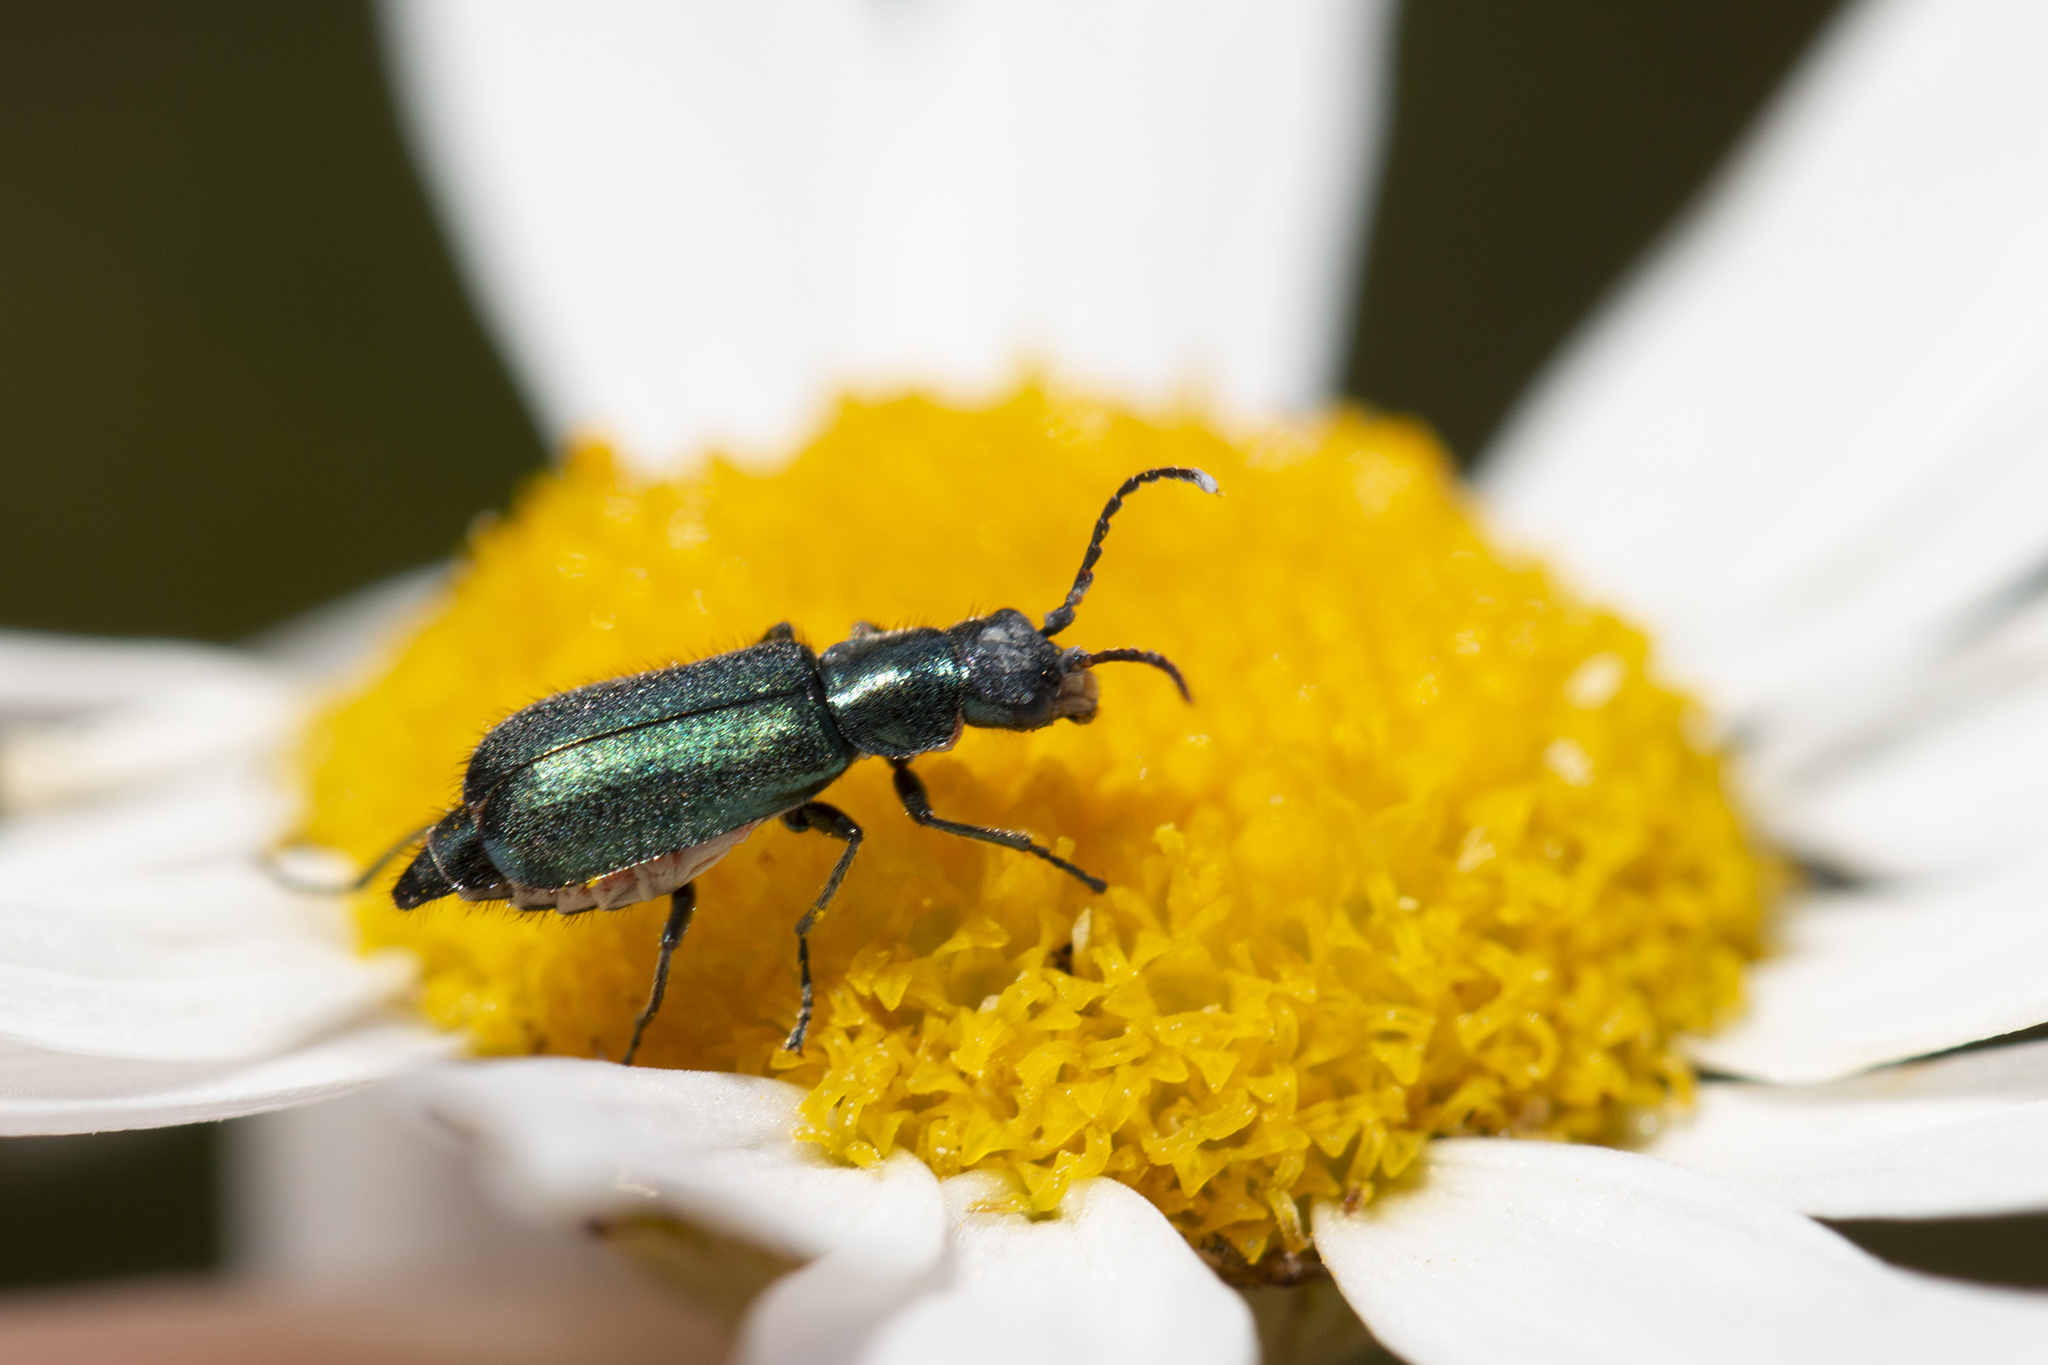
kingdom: Animalia
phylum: Arthropoda
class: Insecta
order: Coleoptera
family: Malachiidae
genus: Cordylepherus
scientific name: Cordylepherus viridis
